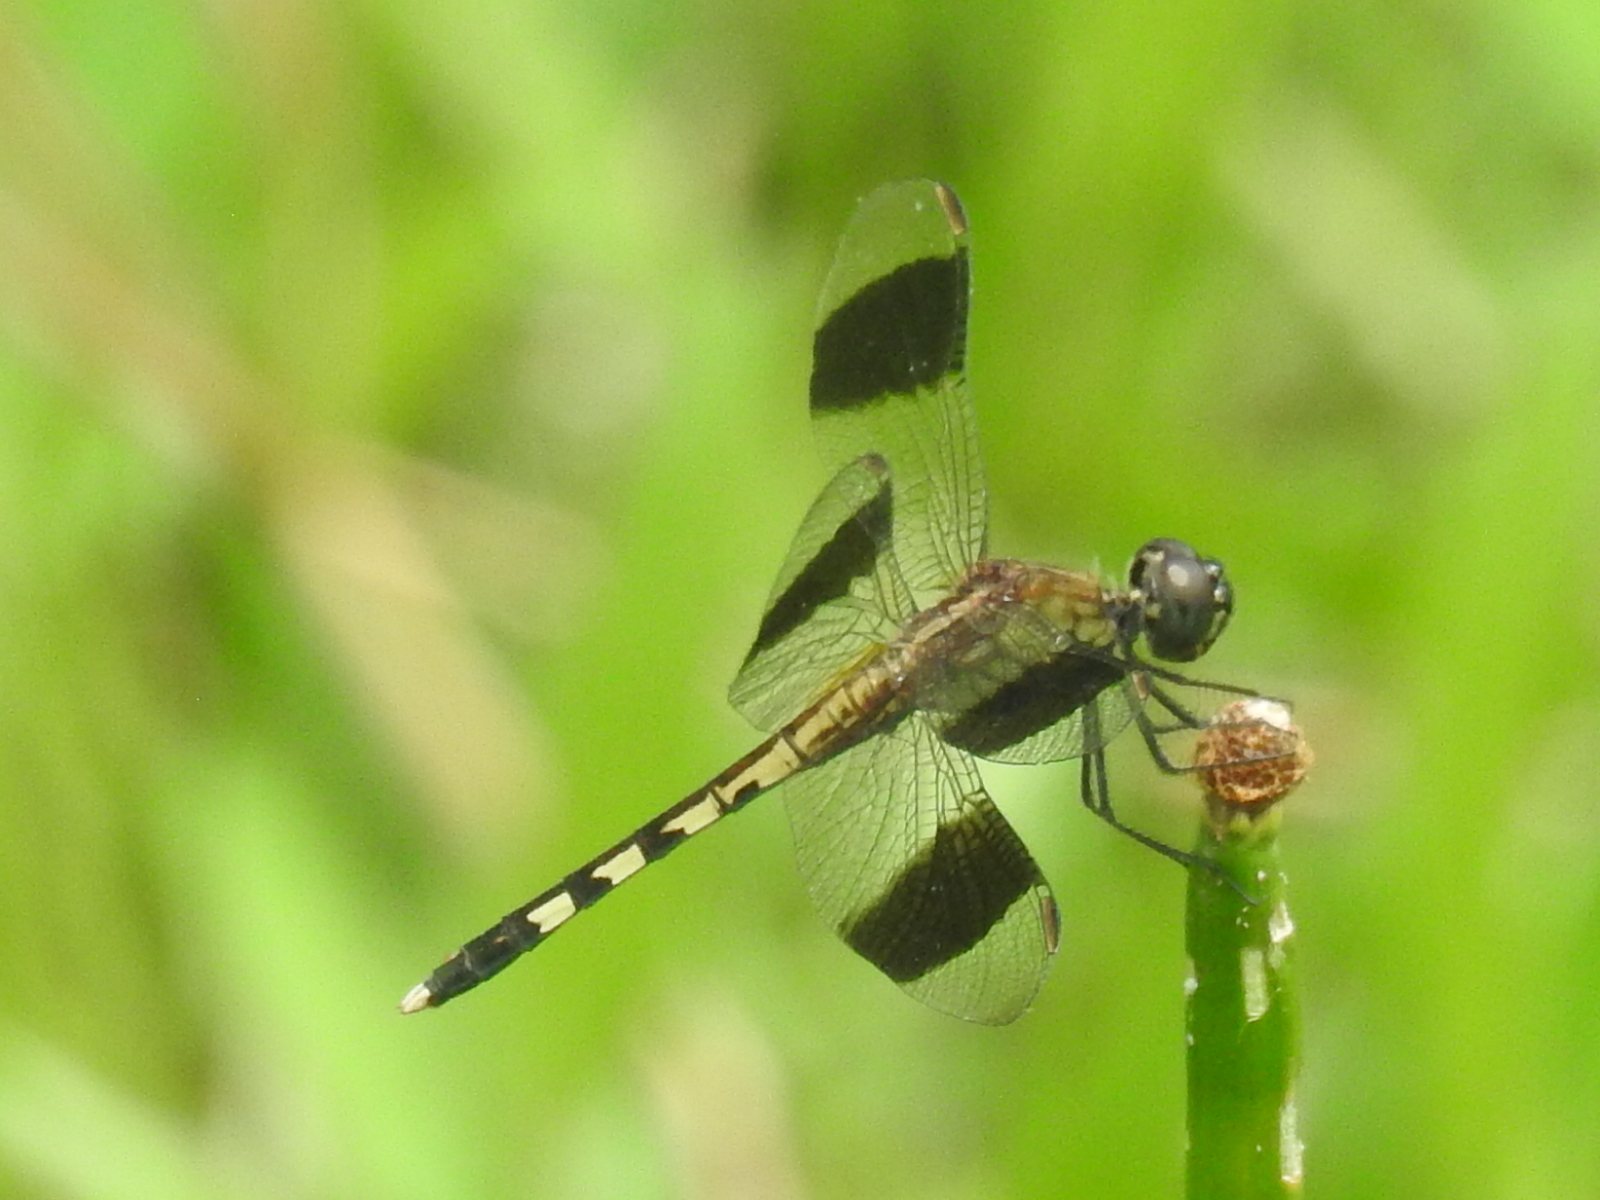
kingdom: Animalia
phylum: Arthropoda
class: Insecta
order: Odonata
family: Libellulidae
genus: Erythrodiplax
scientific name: Erythrodiplax umbrata
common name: Band-winged dragonlet
